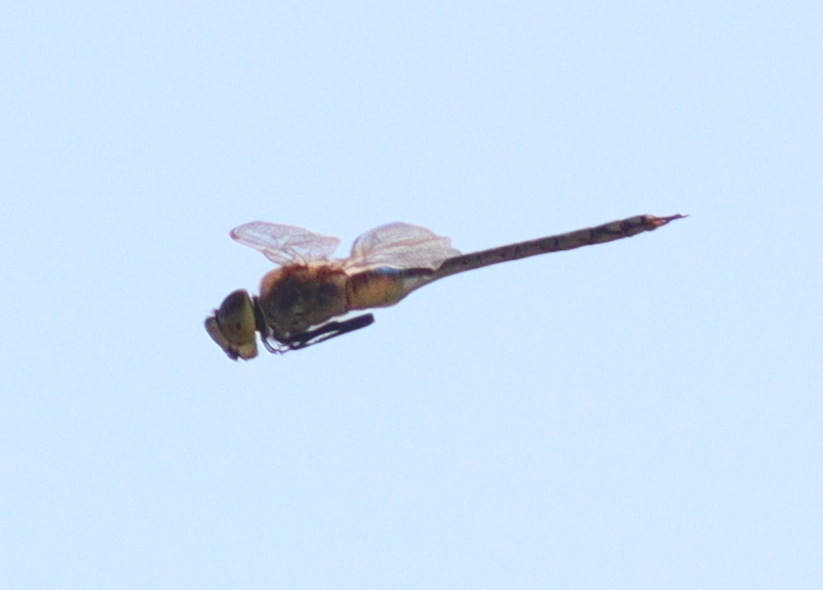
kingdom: Animalia
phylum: Arthropoda
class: Insecta
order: Odonata
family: Aeshnidae
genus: Anax
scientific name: Anax ephippiger
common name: Vagrant emperor
